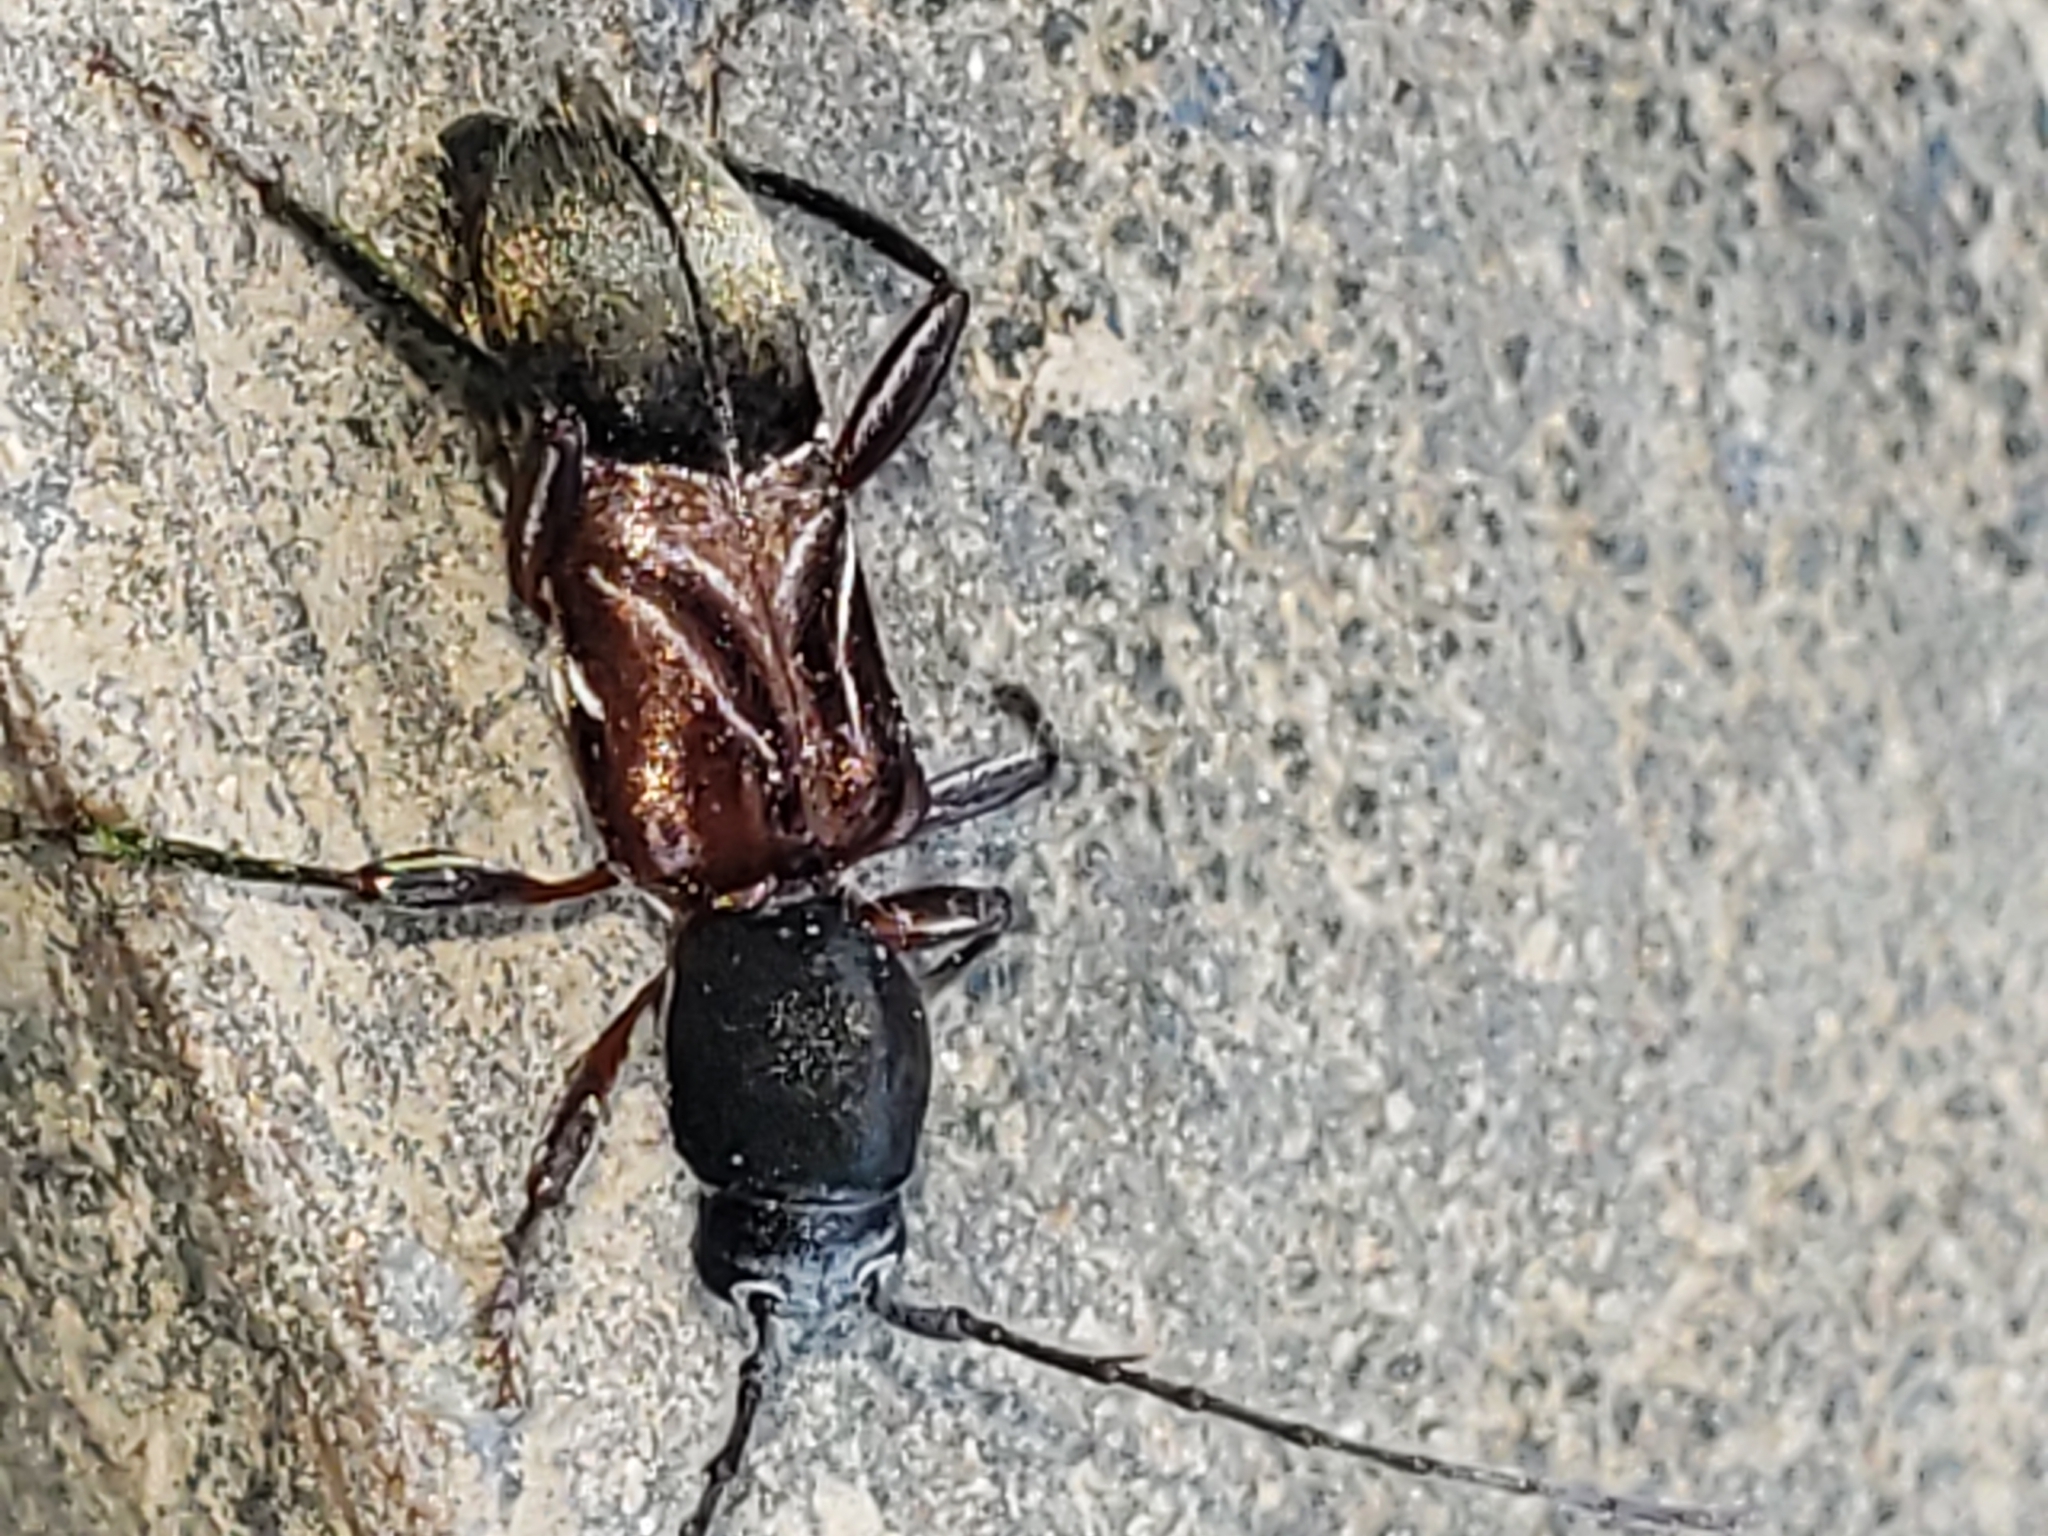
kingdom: Animalia
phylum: Arthropoda
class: Insecta
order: Coleoptera
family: Cerambycidae
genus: Cyrtophorus
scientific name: Cyrtophorus verrucosus
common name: Ant-like longhorn beetle
